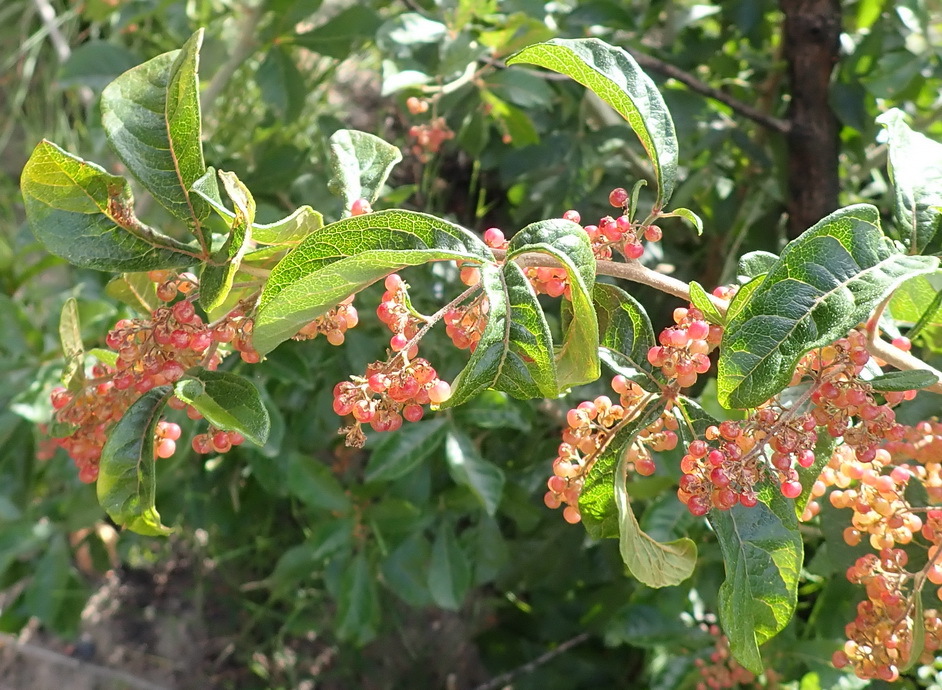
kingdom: Plantae
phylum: Tracheophyta
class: Magnoliopsida
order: Sapindales
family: Anacardiaceae
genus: Searsia
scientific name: Searsia pyroides
